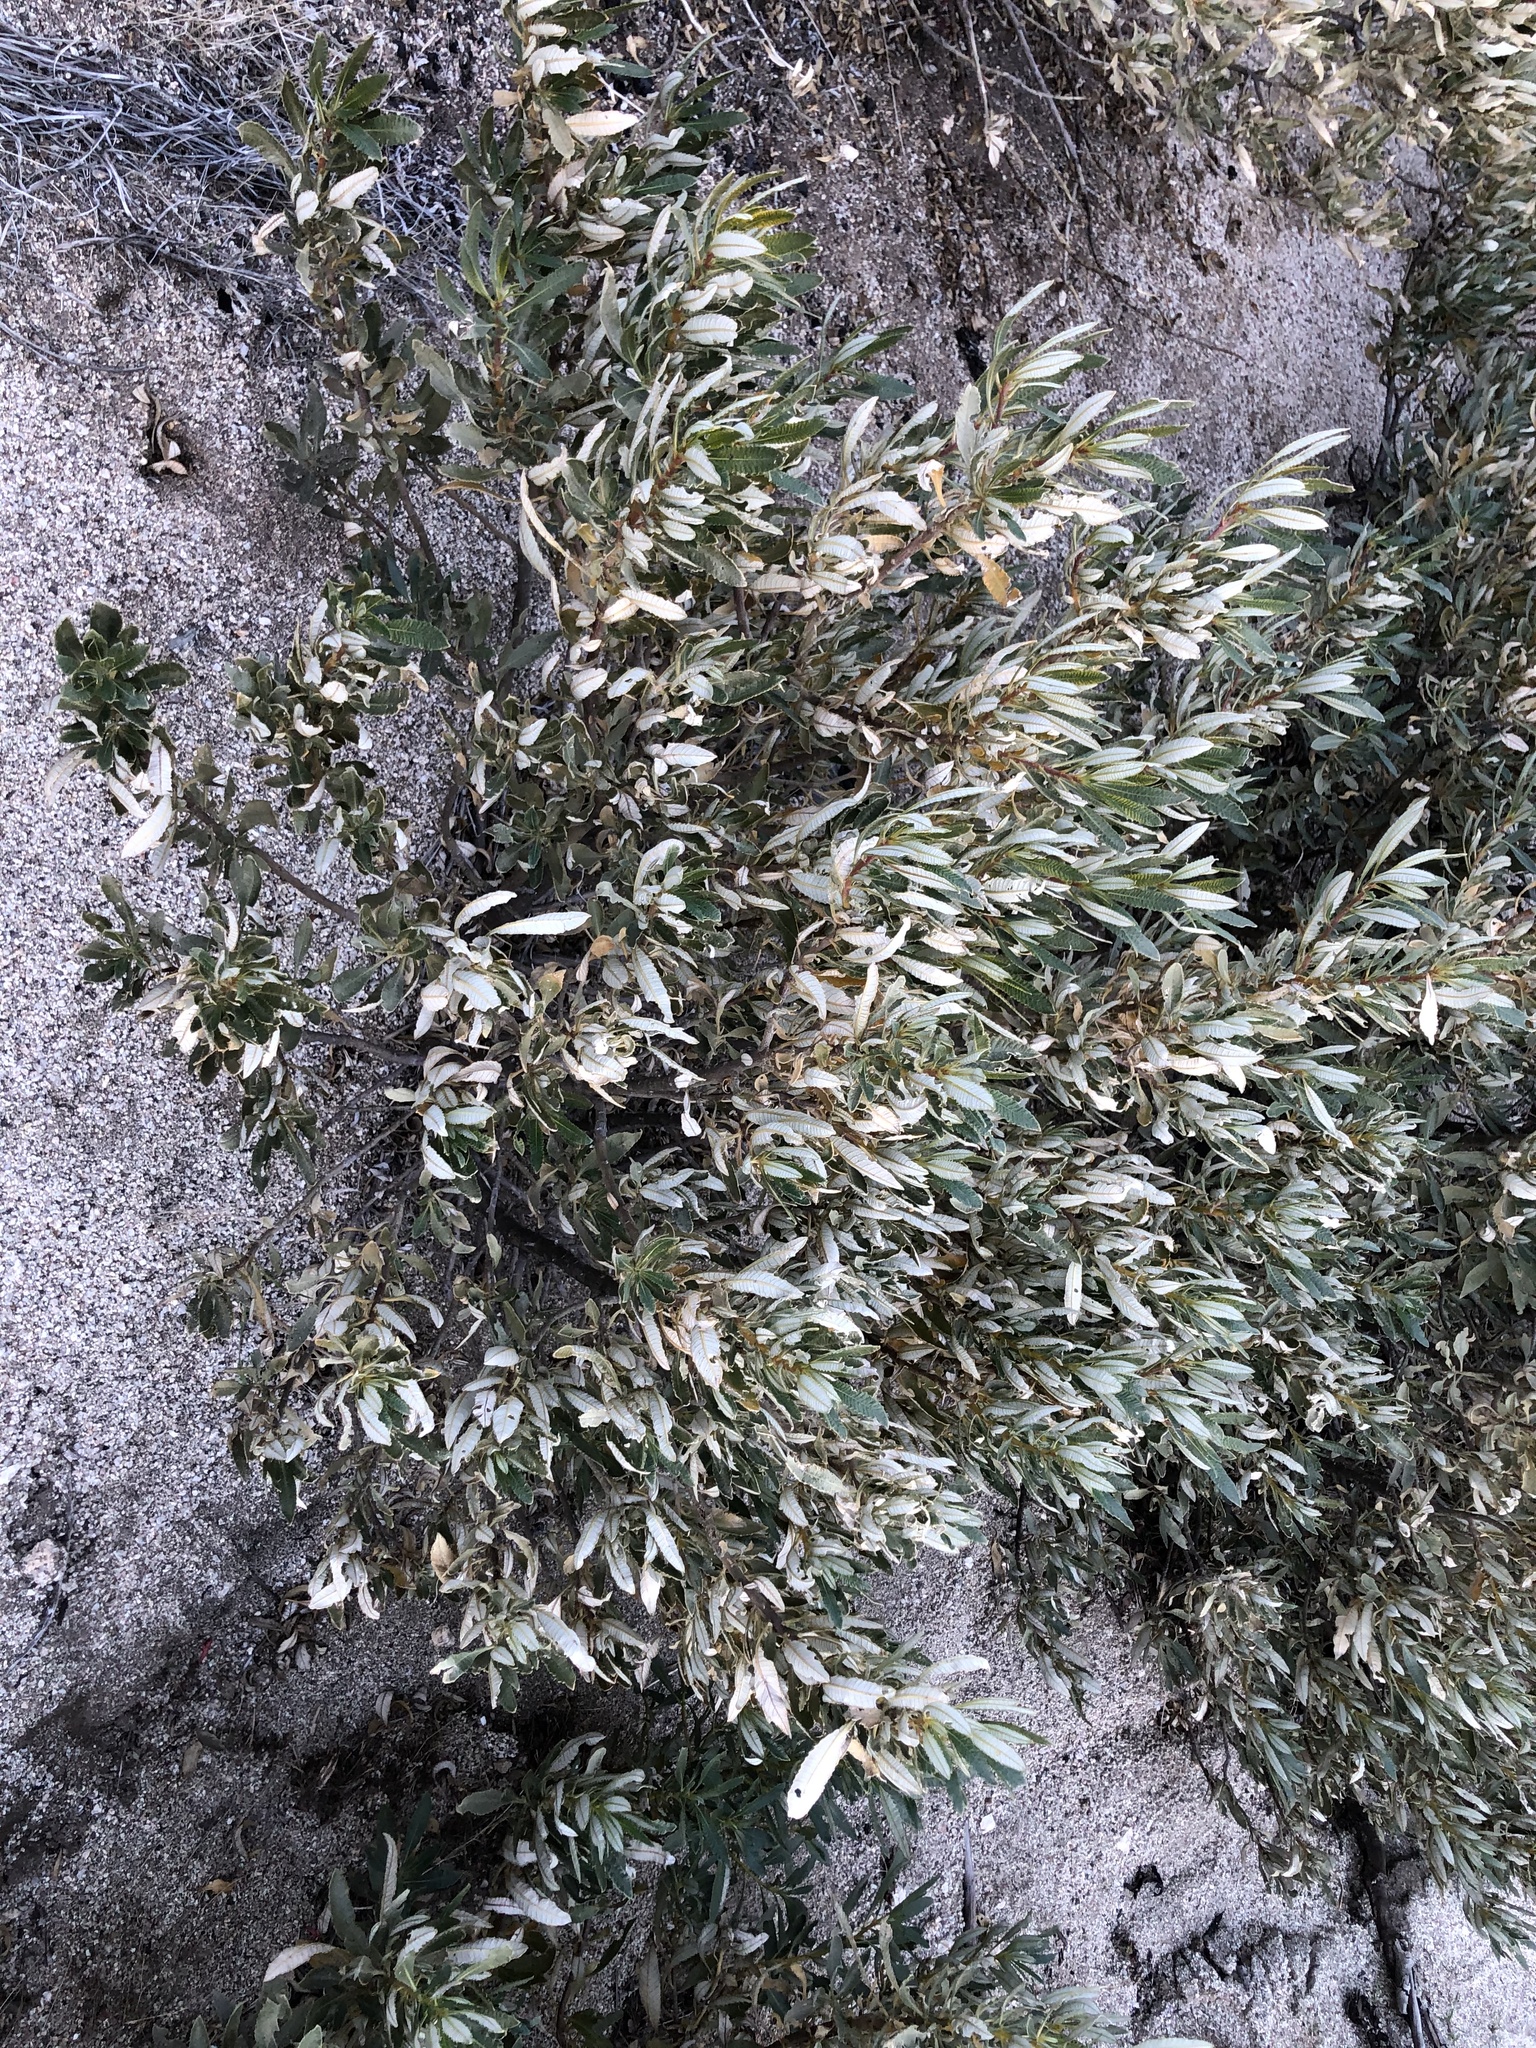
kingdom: Plantae
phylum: Tracheophyta
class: Magnoliopsida
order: Boraginales
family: Namaceae
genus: Eriodictyon
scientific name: Eriodictyon trichocalyx
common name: Hairy yerba-santa
